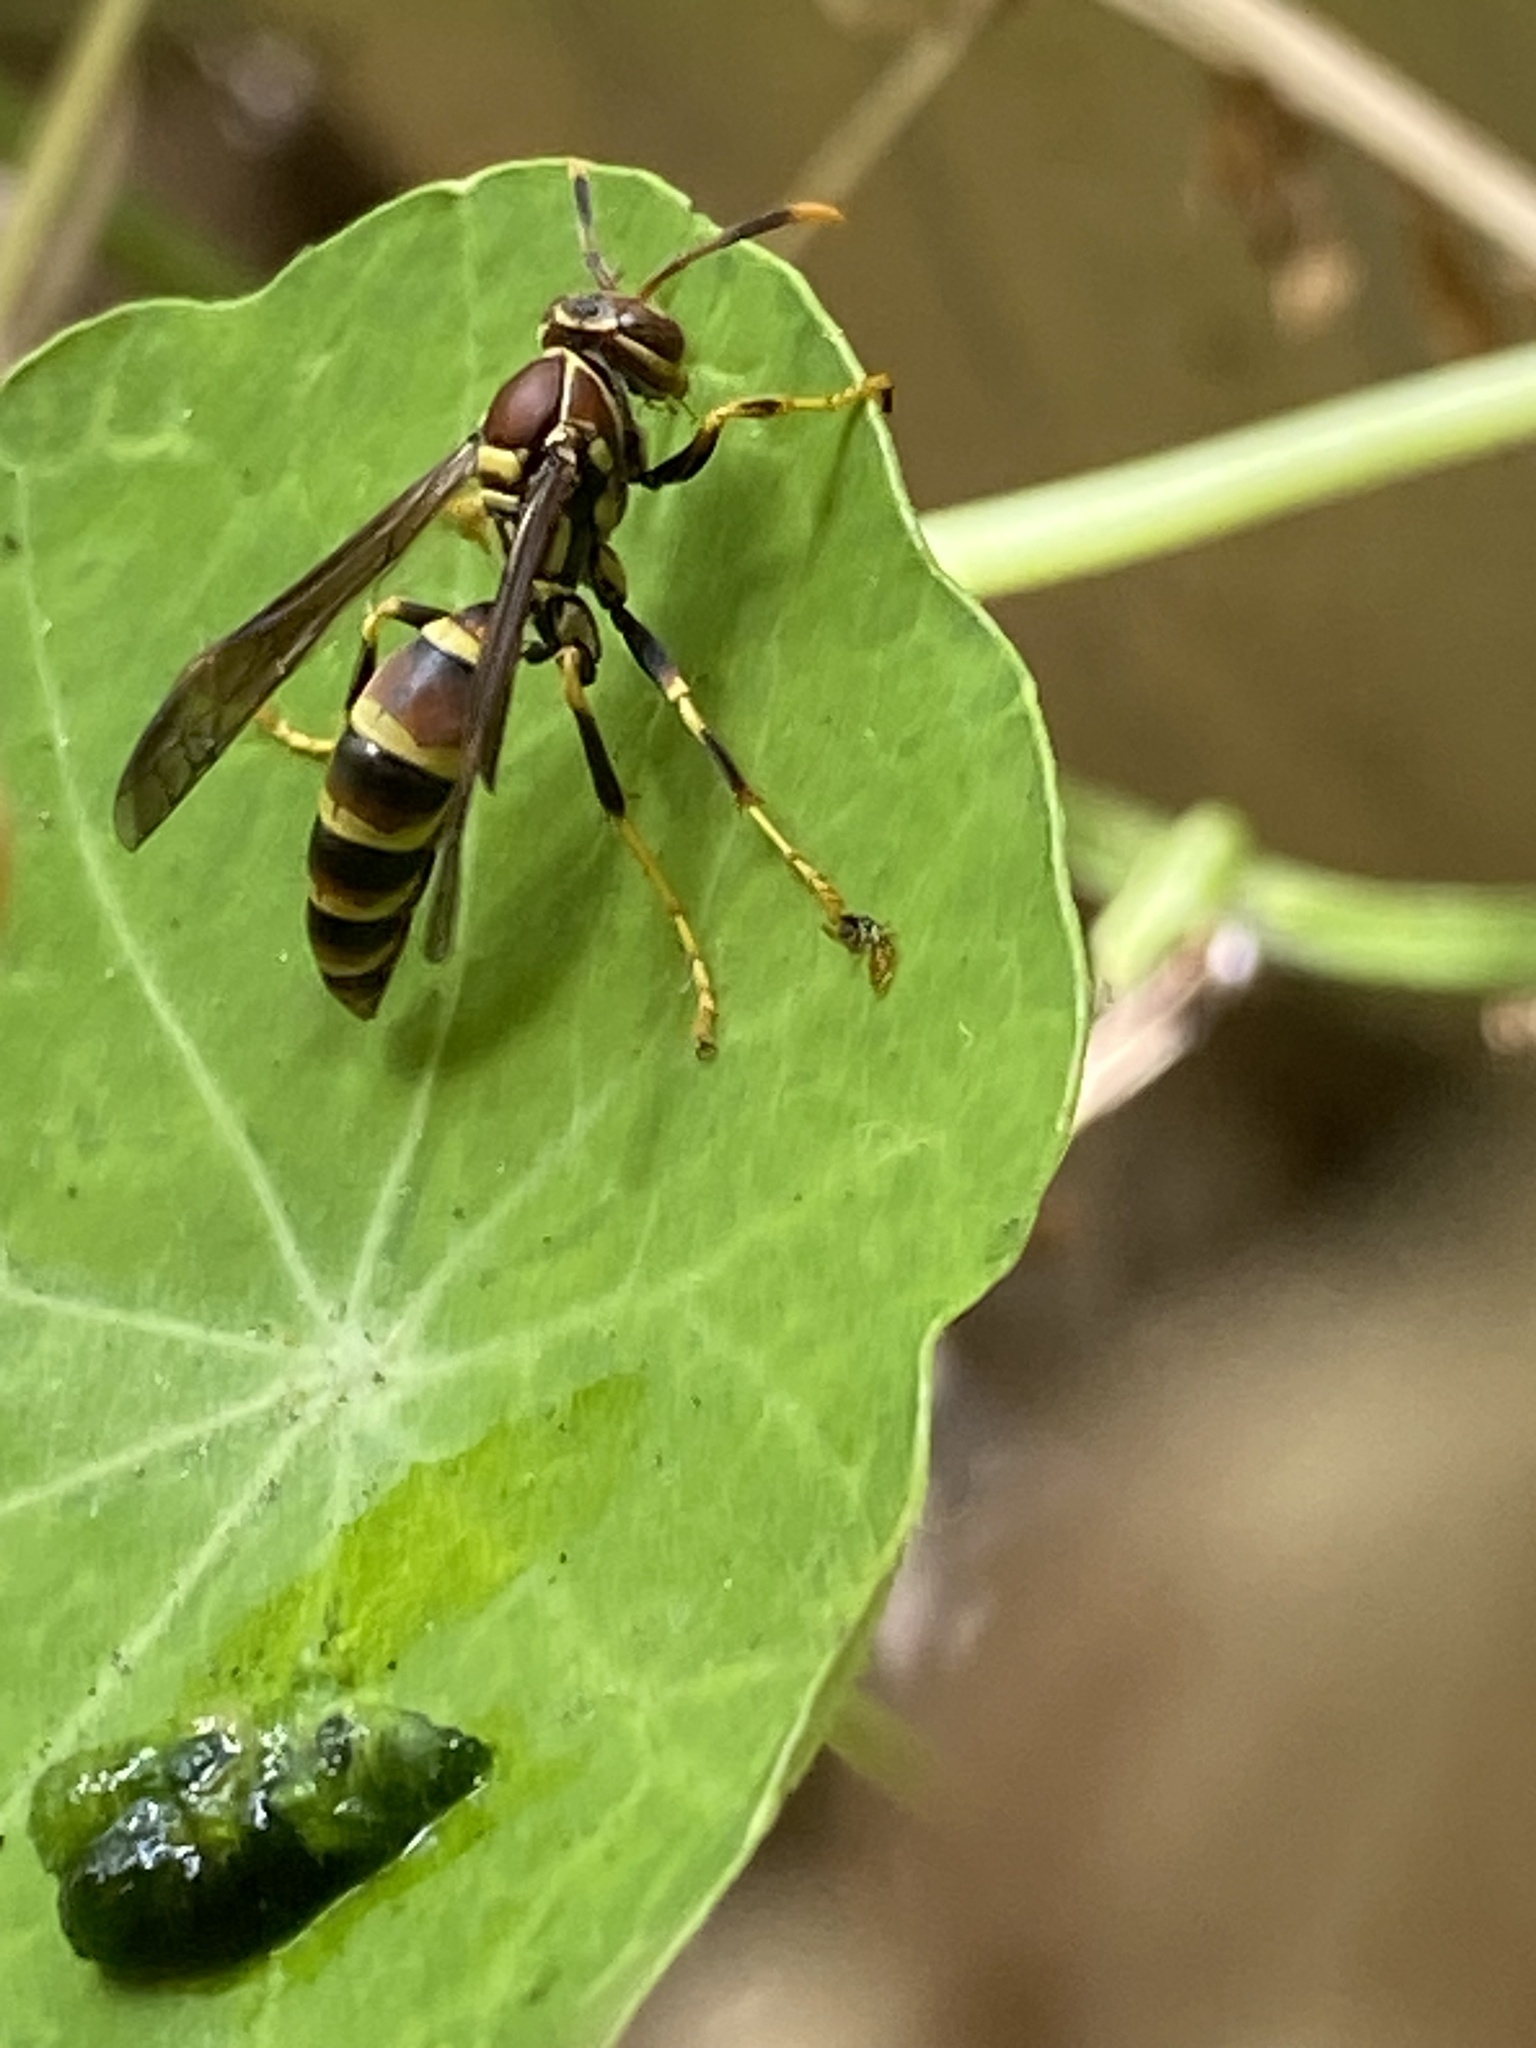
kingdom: Animalia
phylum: Arthropoda
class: Insecta
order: Hymenoptera
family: Eumenidae
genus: Polistes
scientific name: Polistes exclamans
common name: Paper wasp
